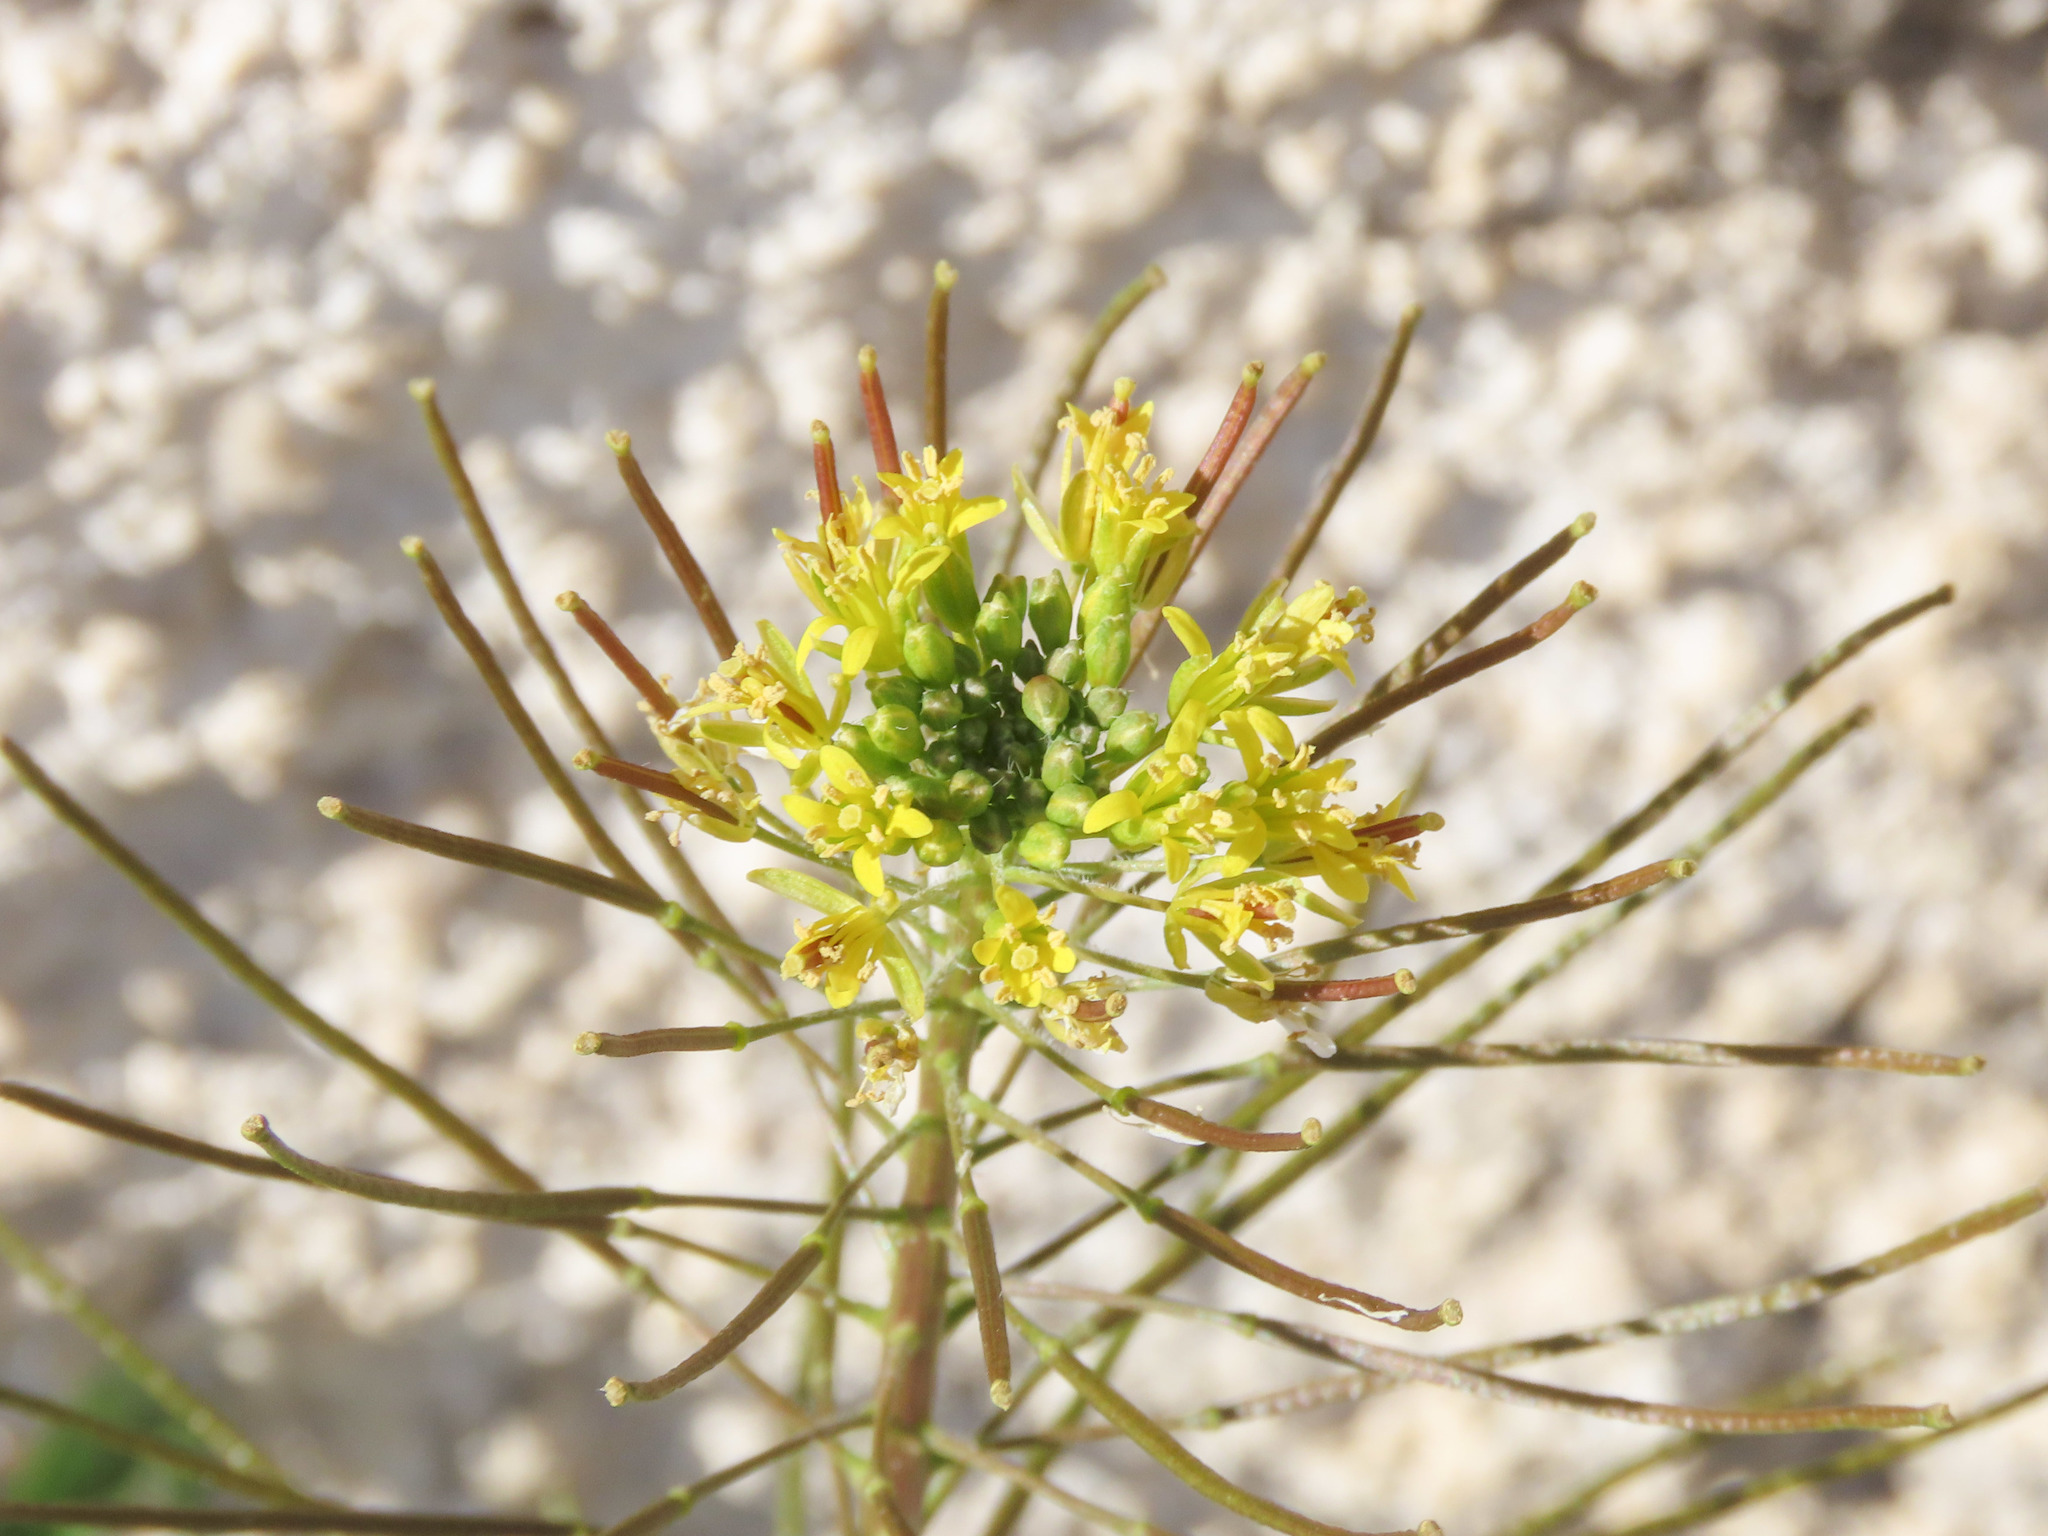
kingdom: Plantae
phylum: Tracheophyta
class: Magnoliopsida
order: Brassicales
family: Brassicaceae
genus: Sisymbrium
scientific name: Sisymbrium irio
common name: London rocket
